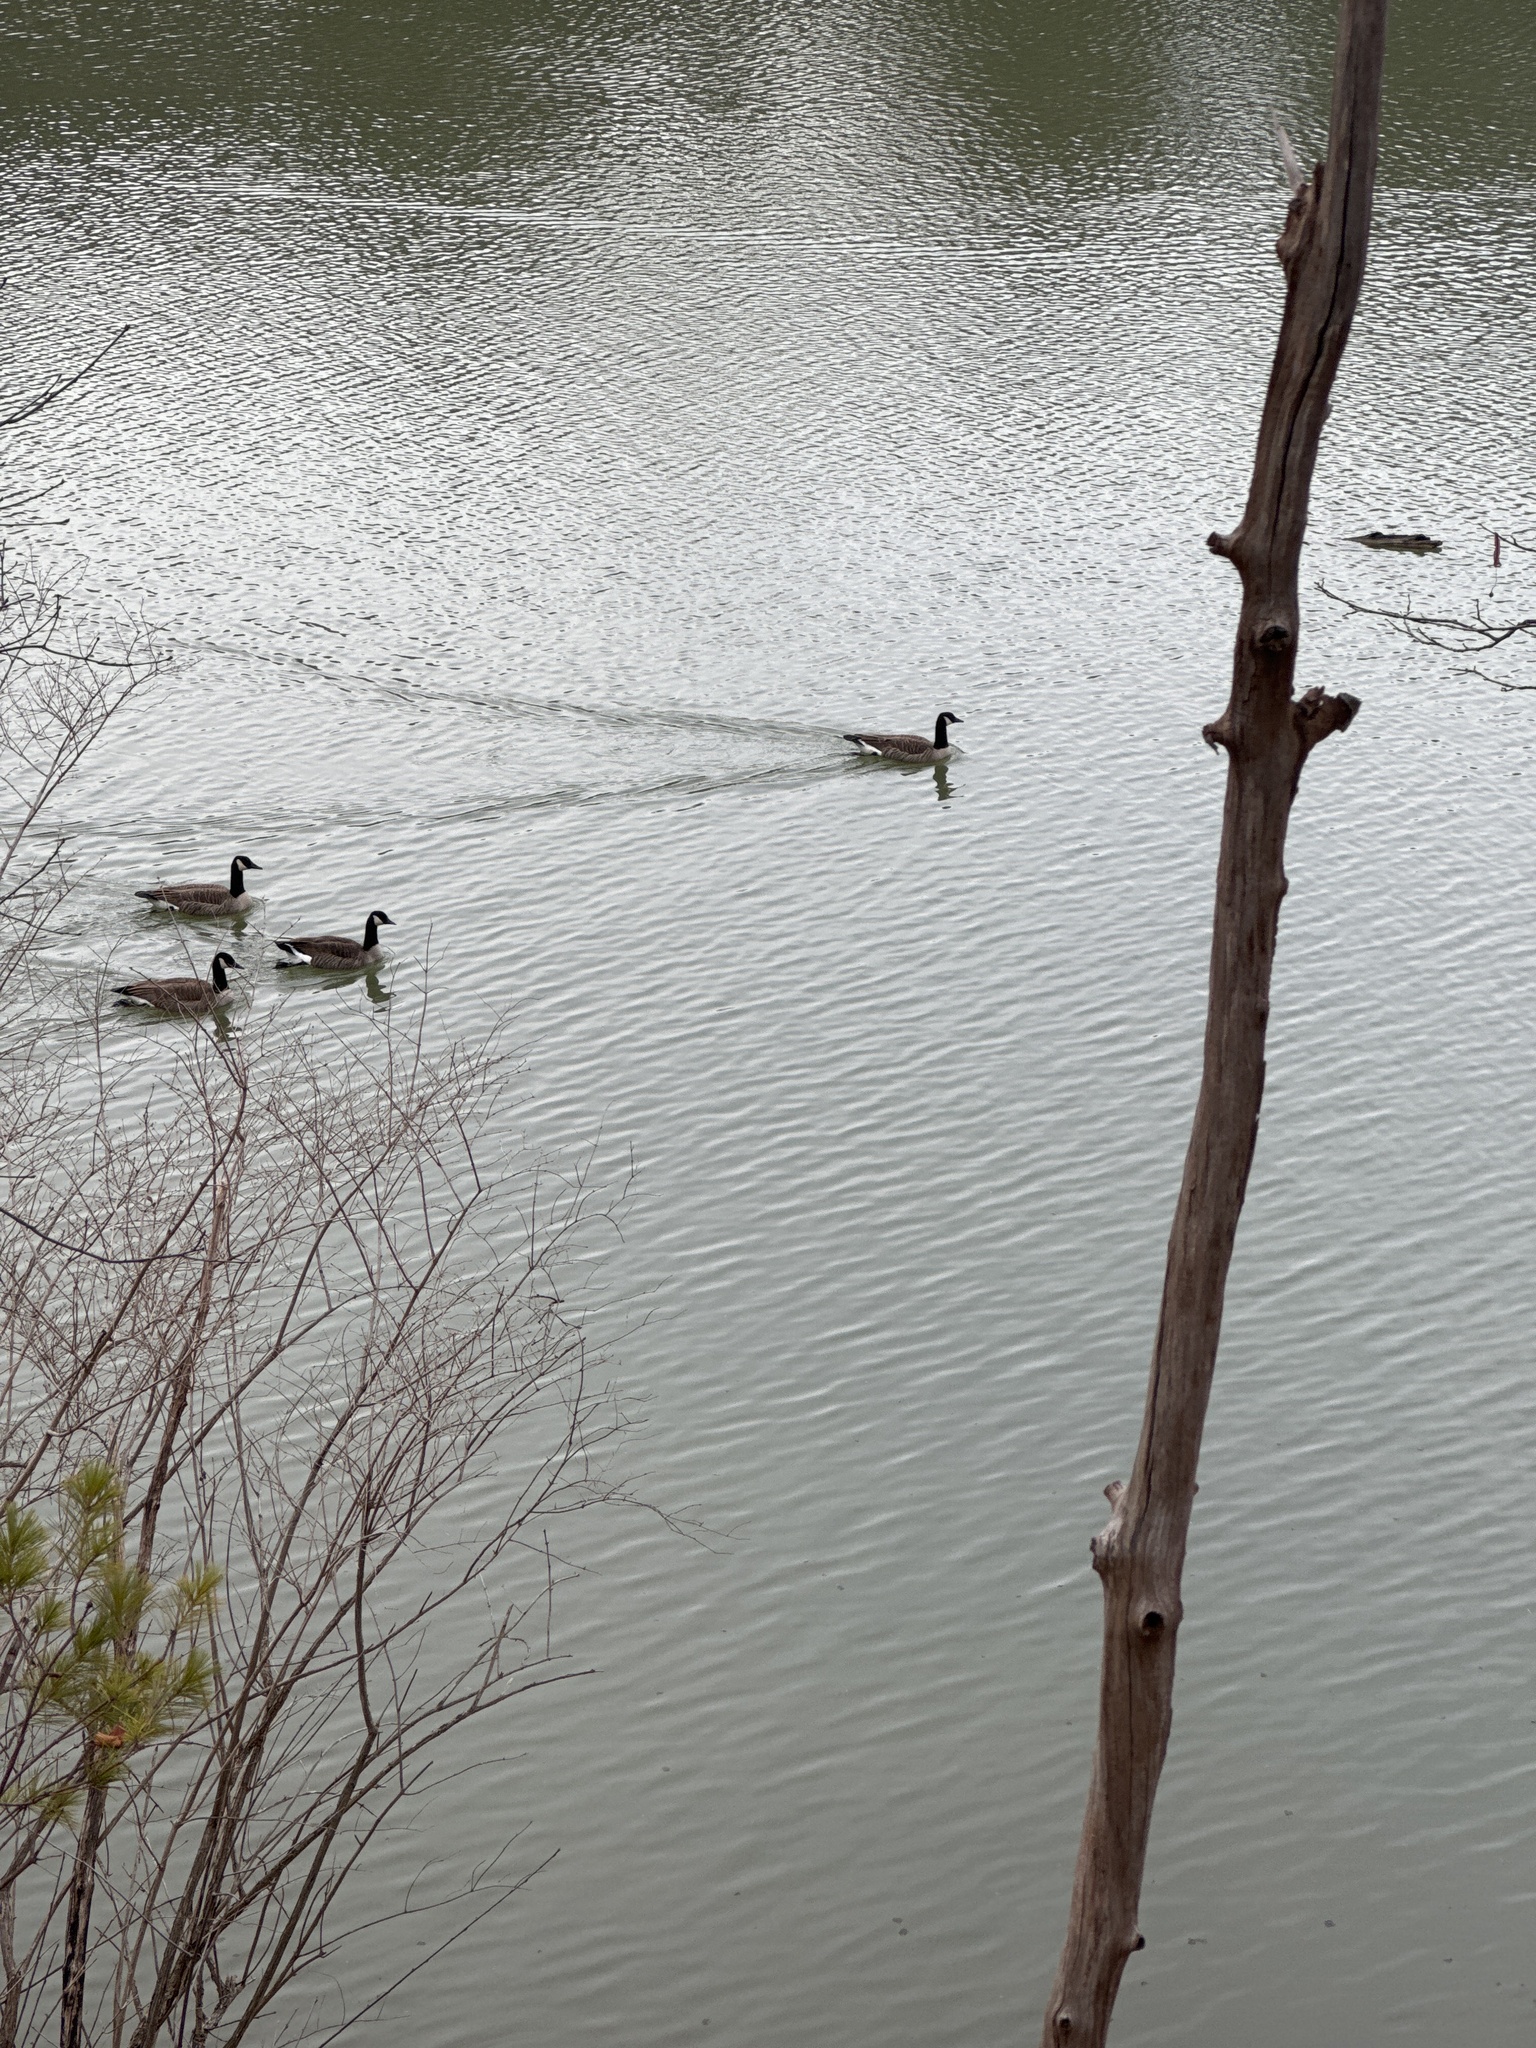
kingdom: Animalia
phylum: Chordata
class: Aves
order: Anseriformes
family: Anatidae
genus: Branta
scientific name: Branta canadensis
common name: Canada goose
